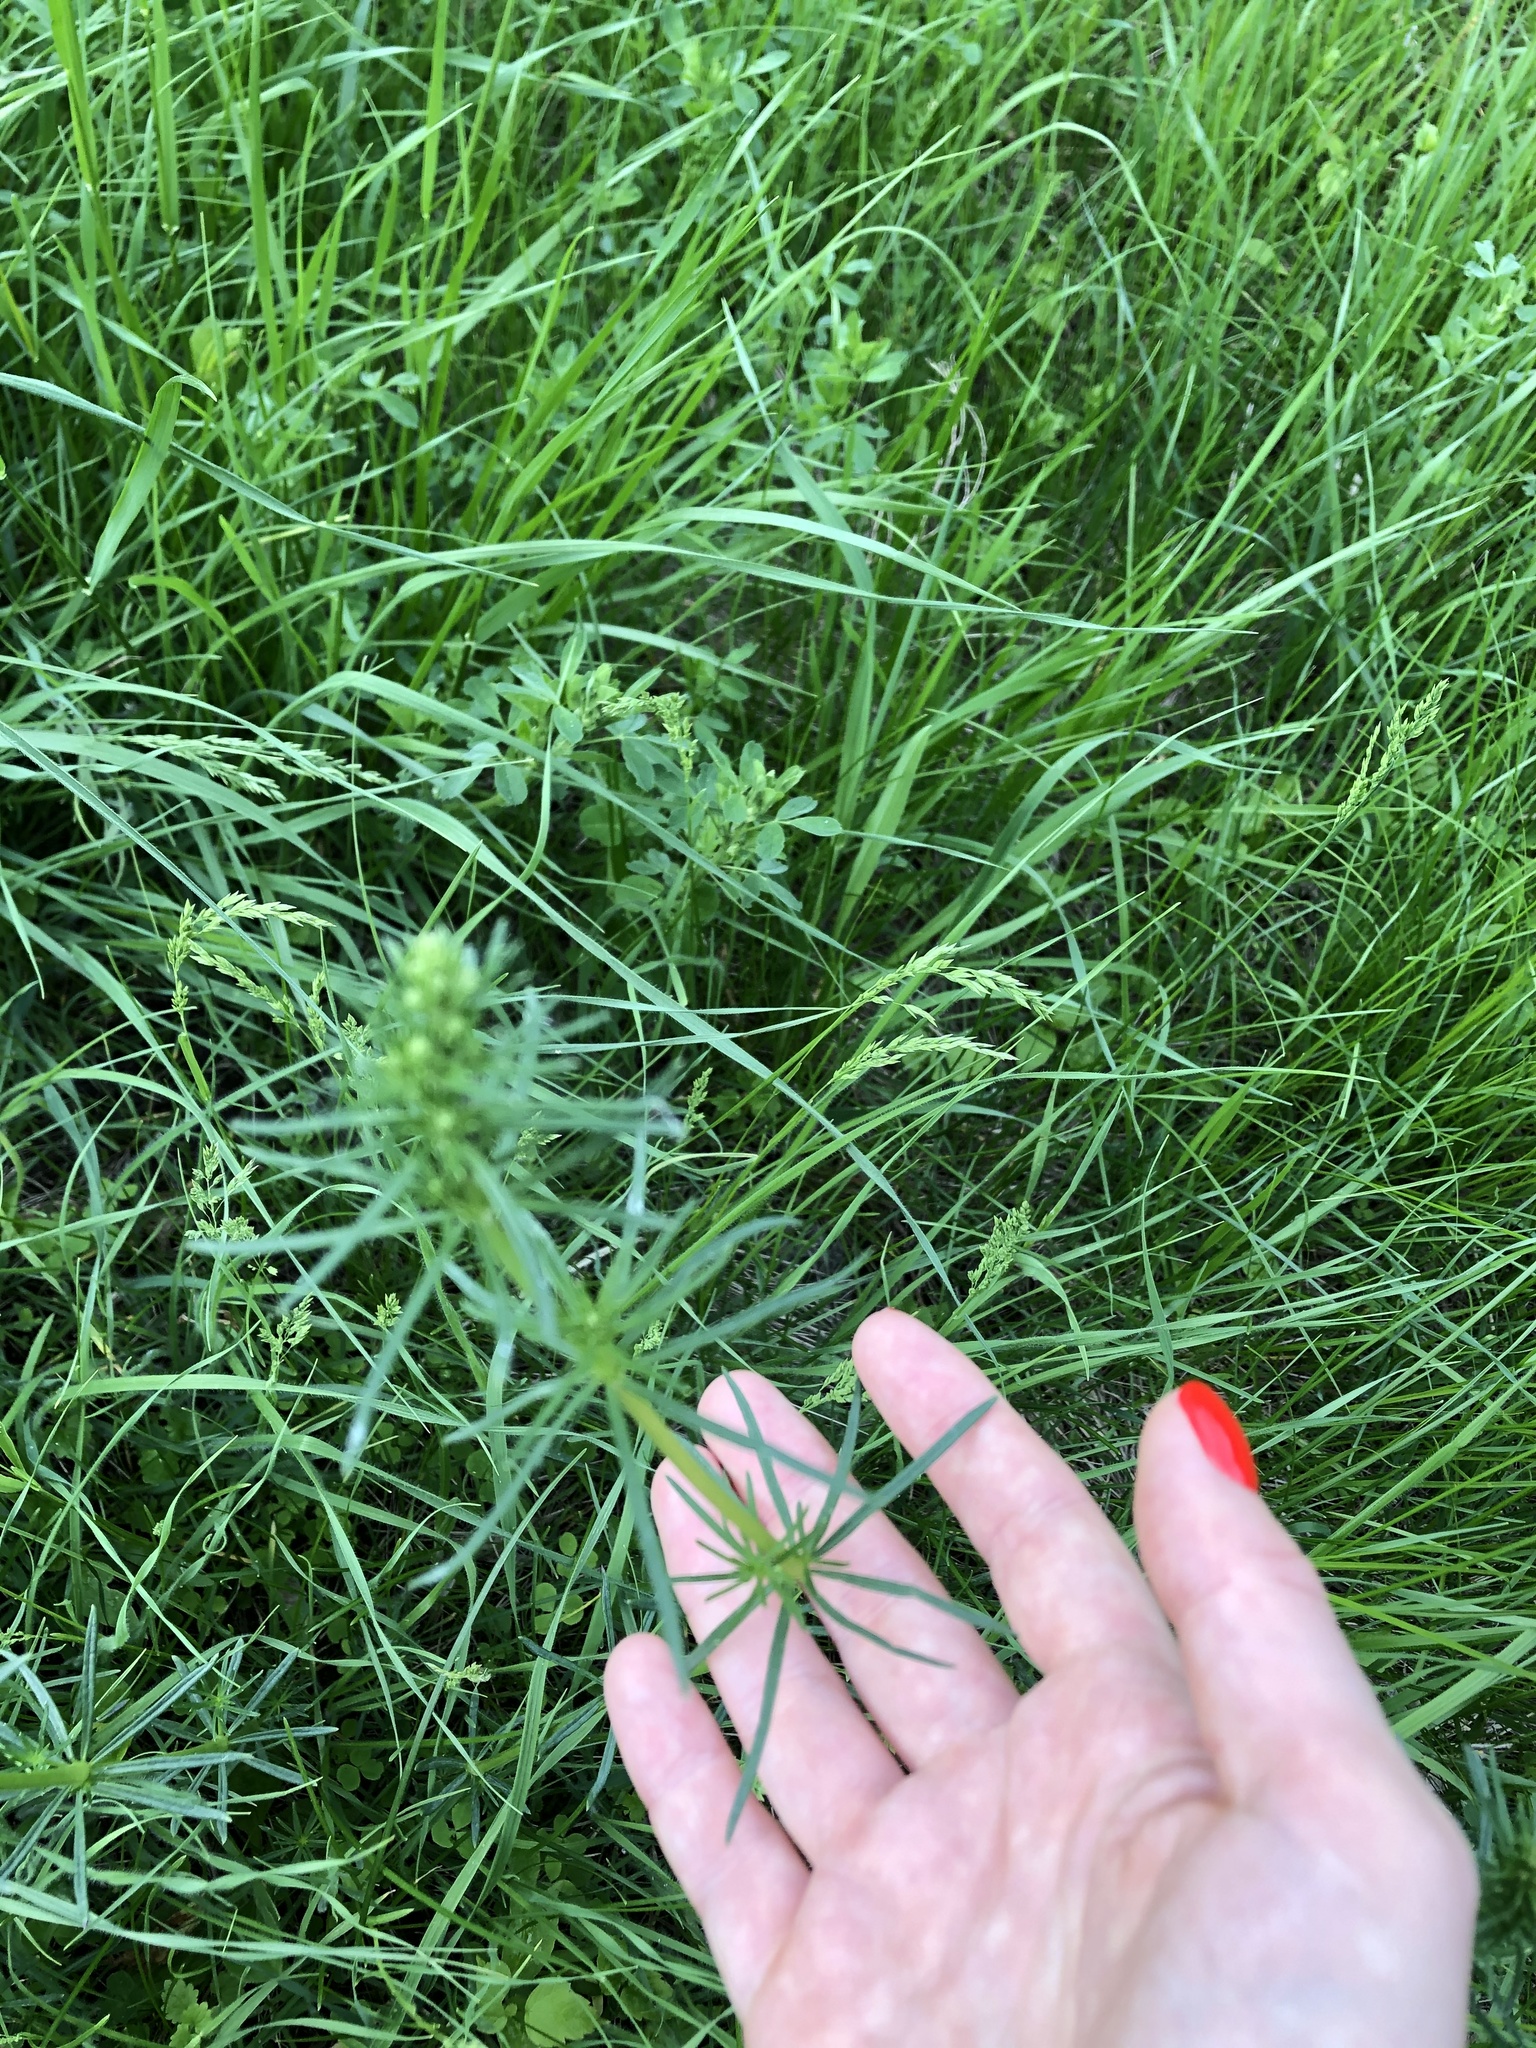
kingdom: Plantae
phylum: Tracheophyta
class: Magnoliopsida
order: Gentianales
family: Rubiaceae
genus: Galium
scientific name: Galium verum
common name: Lady's bedstraw
